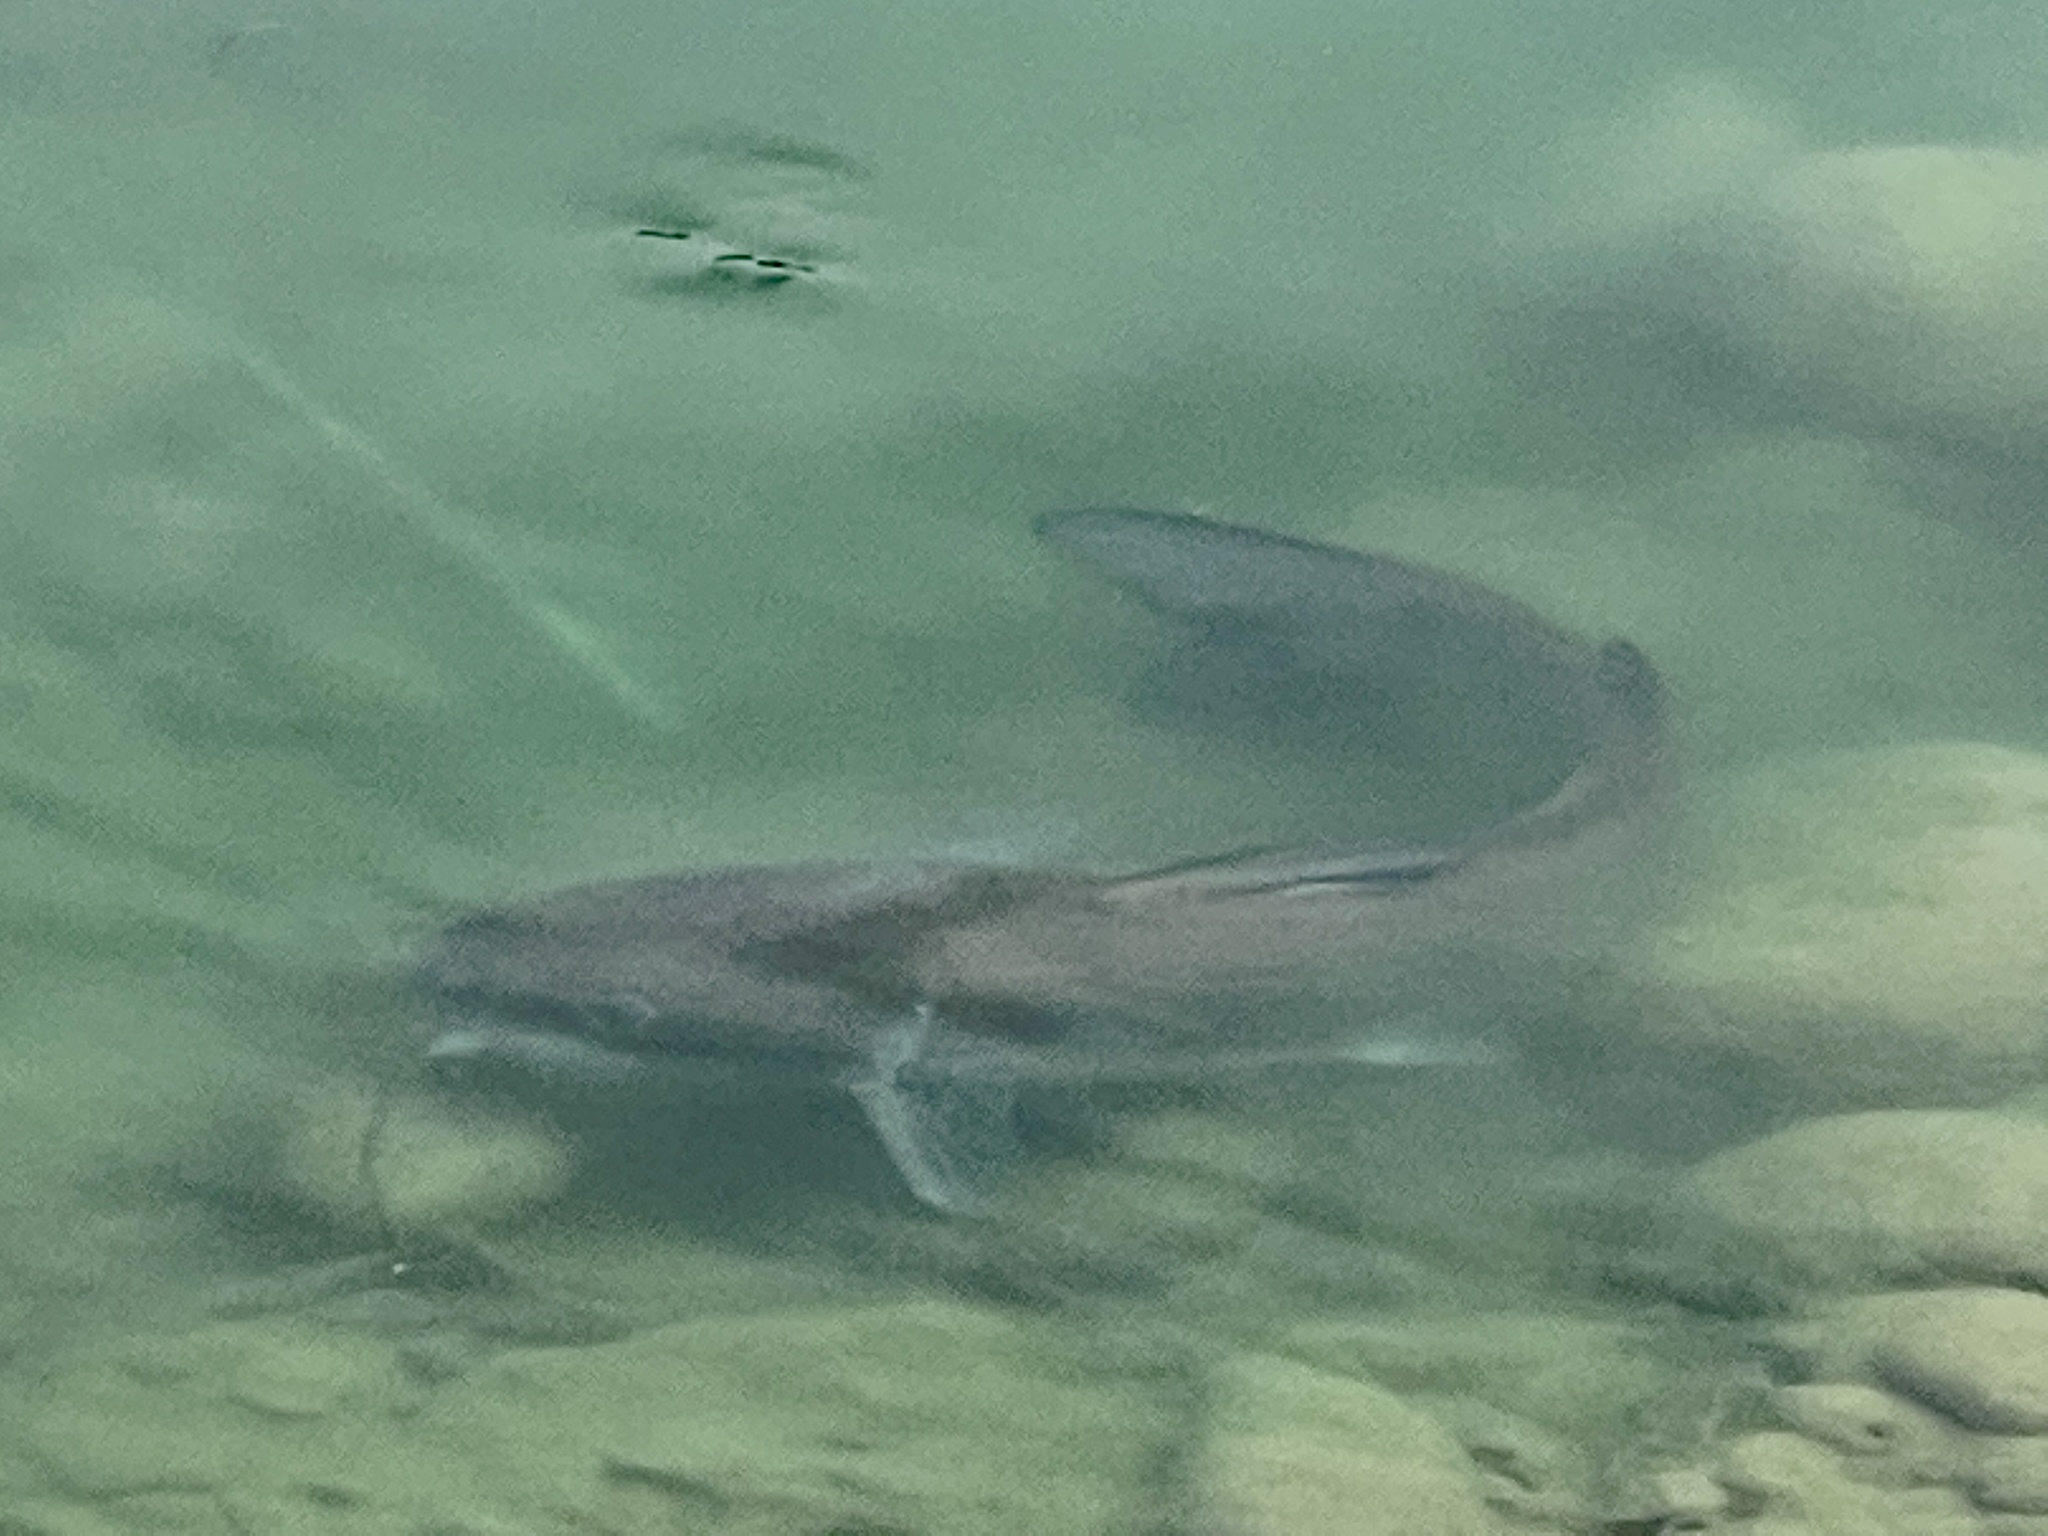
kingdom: Animalia
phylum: Chordata
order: Siluriformes
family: Ictaluridae
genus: Ictalurus
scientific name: Ictalurus punctatus
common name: Channel catfish
